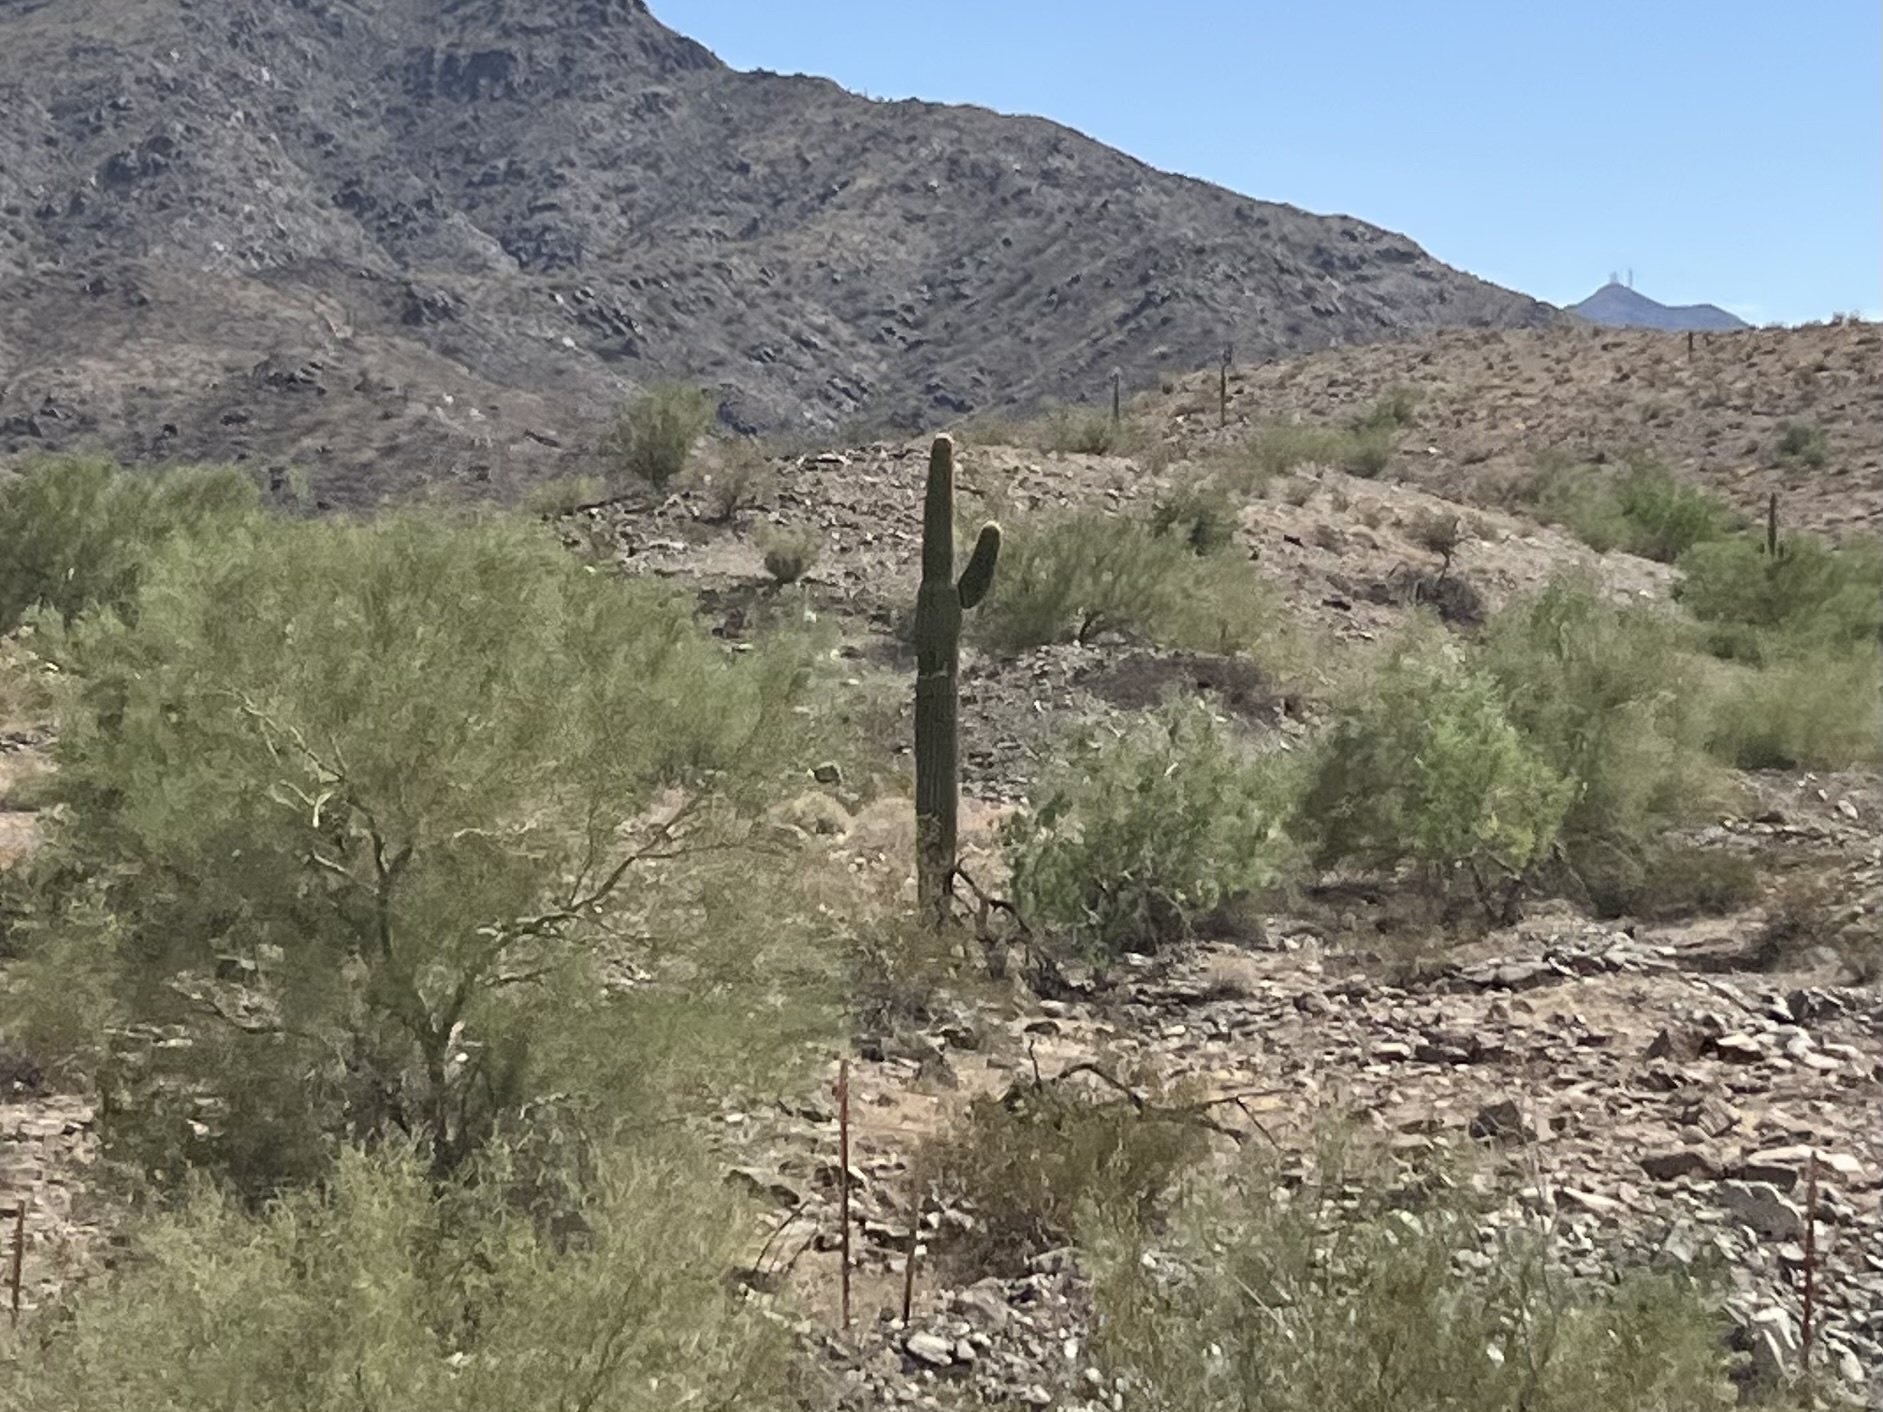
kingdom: Plantae
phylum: Tracheophyta
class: Magnoliopsida
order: Caryophyllales
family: Cactaceae
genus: Carnegiea
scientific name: Carnegiea gigantea
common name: Saguaro
